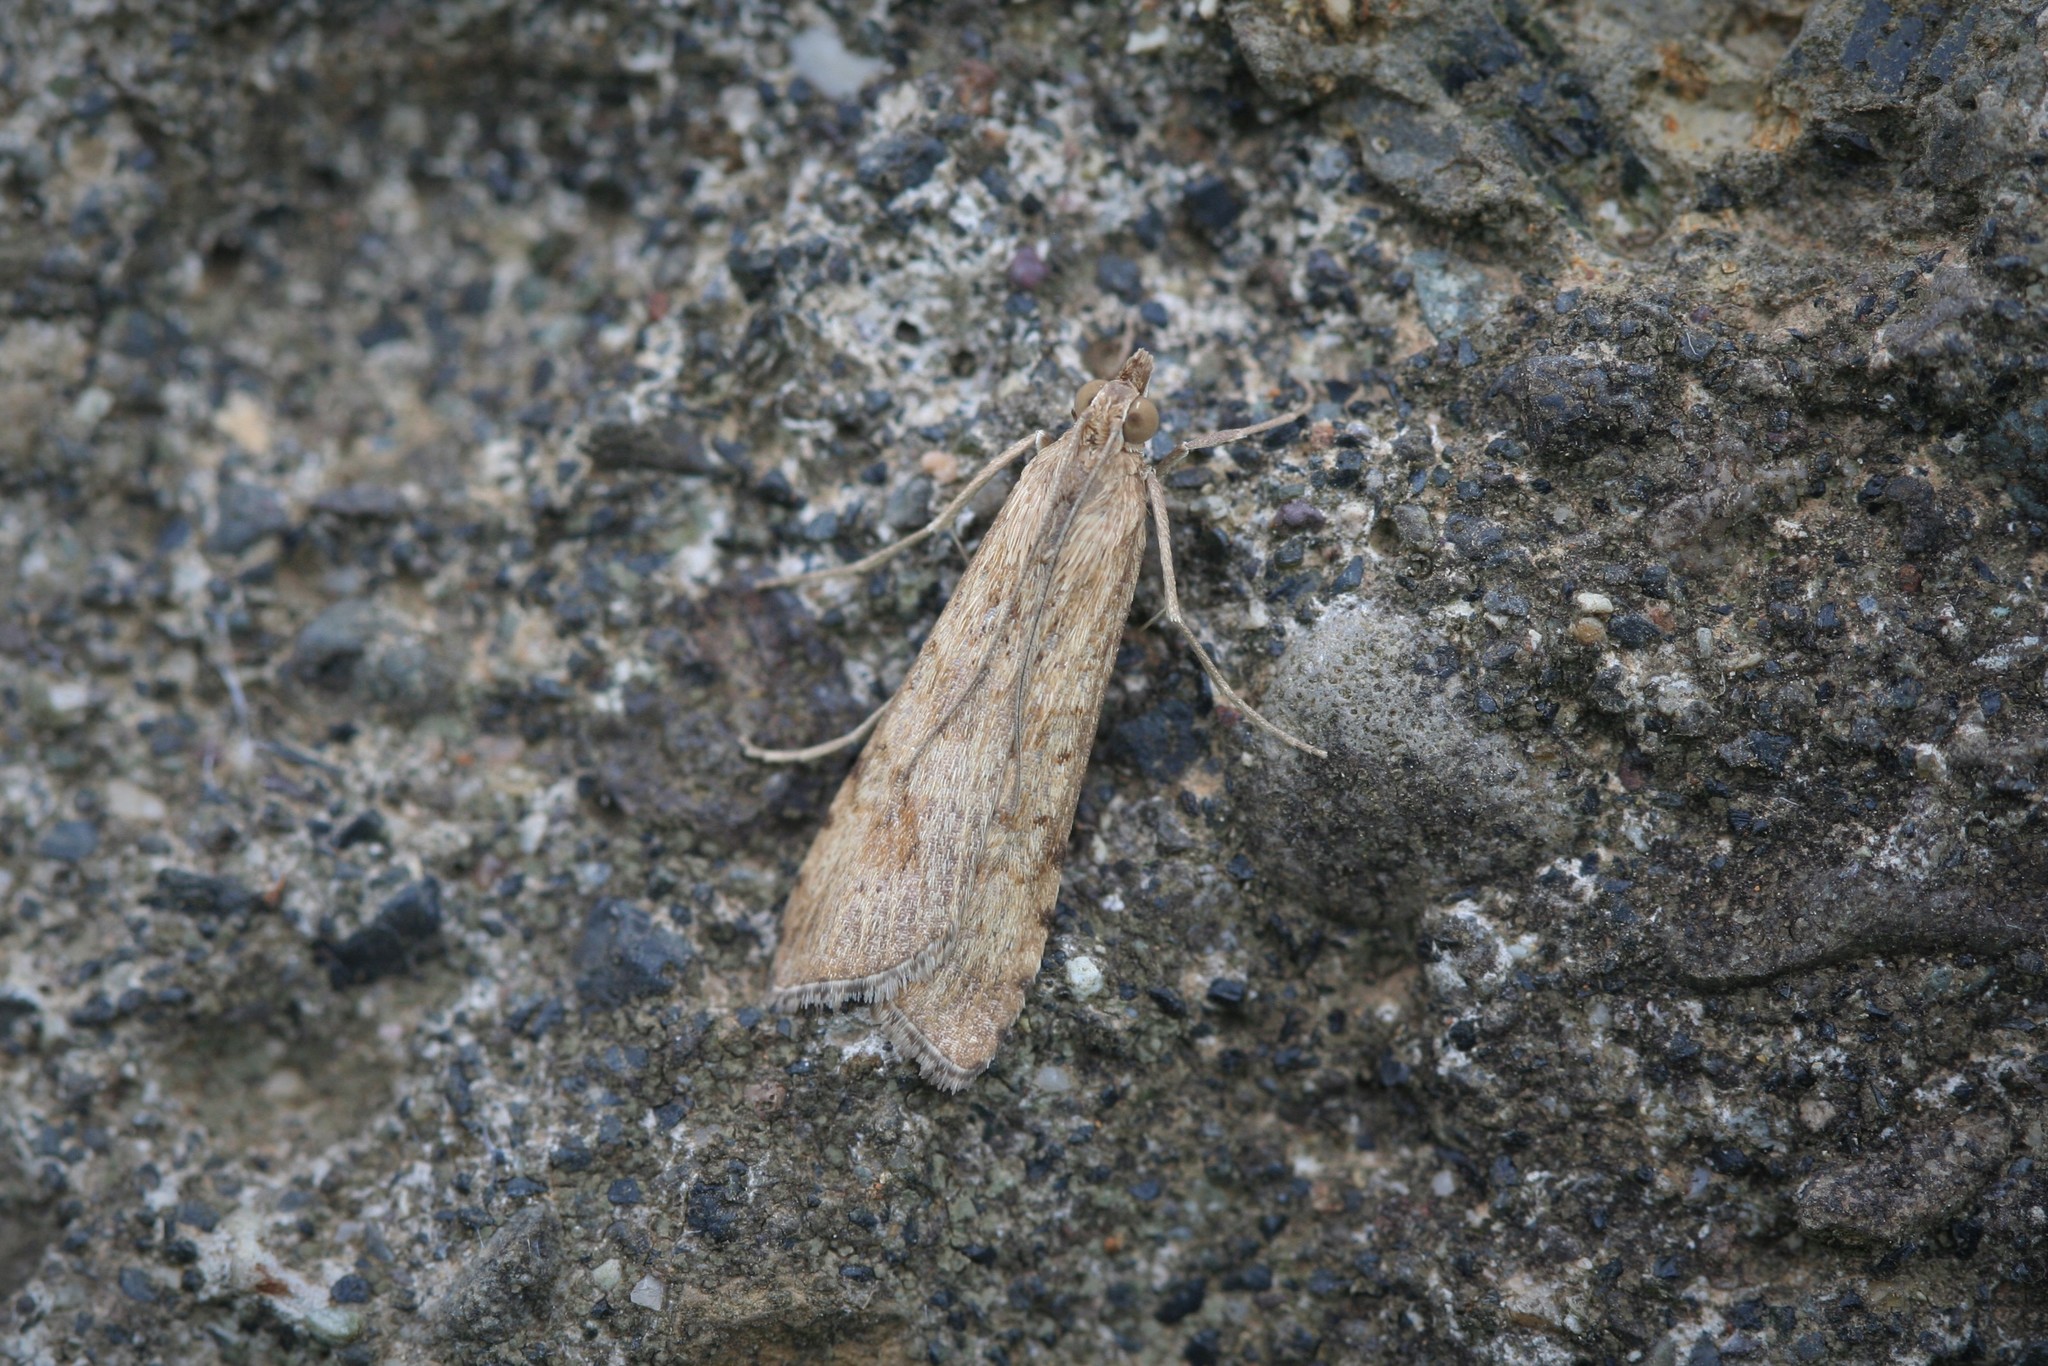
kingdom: Animalia
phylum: Arthropoda
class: Insecta
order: Lepidoptera
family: Crambidae
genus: Nomophila
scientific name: Nomophila noctuella
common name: Rush veneer
